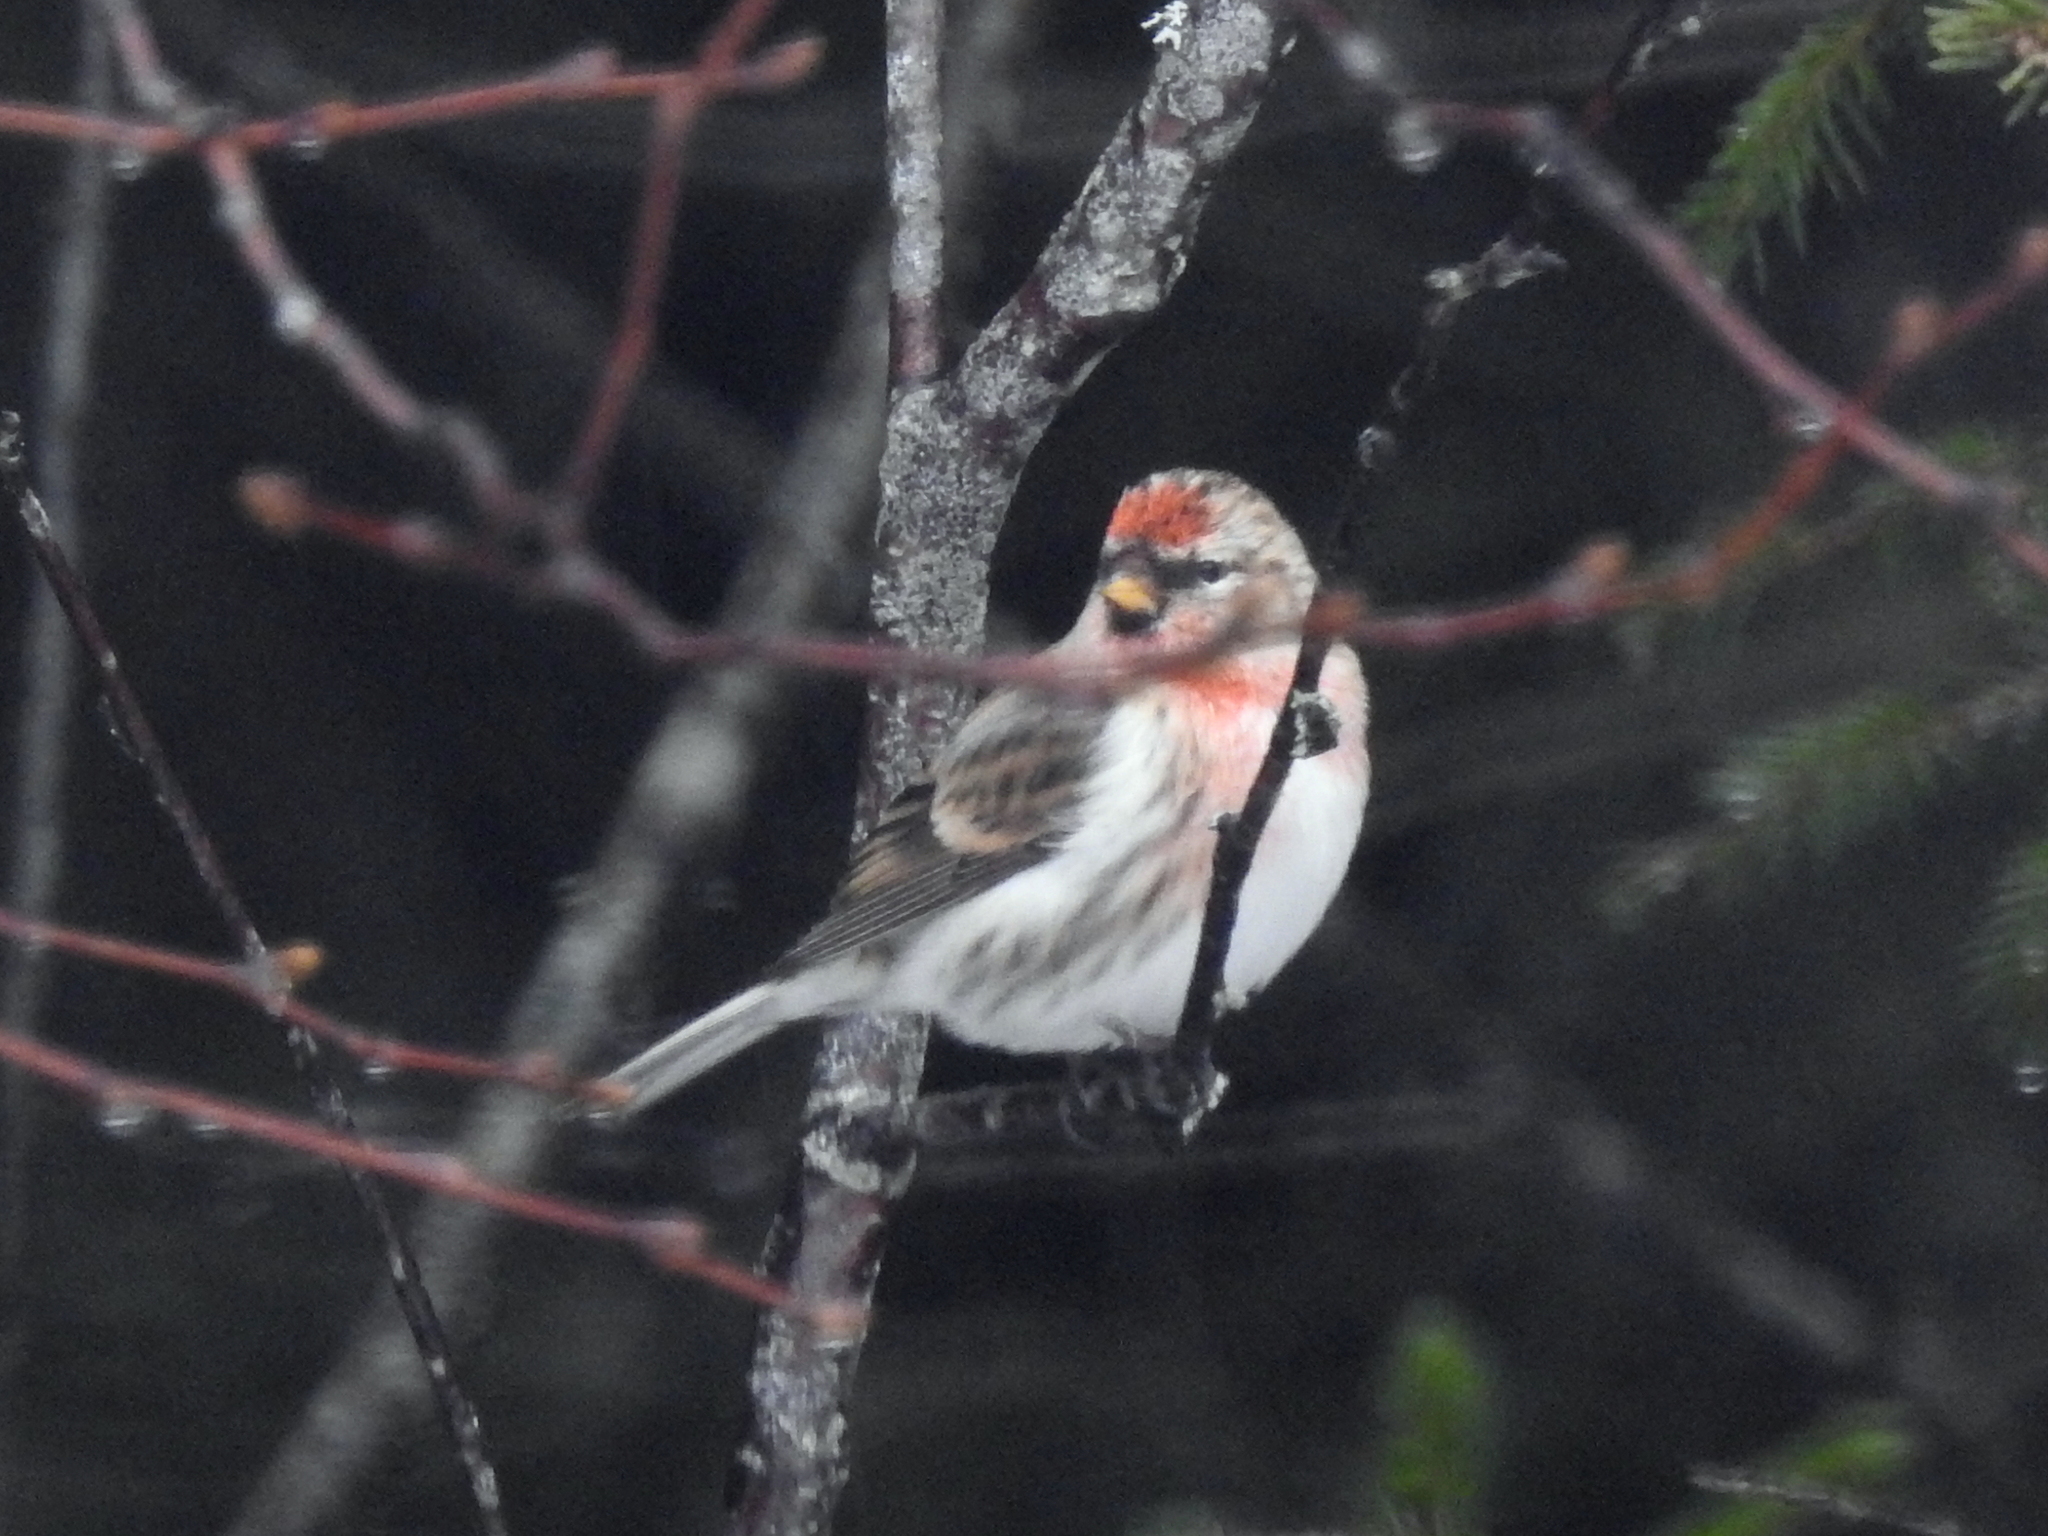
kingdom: Animalia
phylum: Chordata
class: Aves
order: Passeriformes
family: Fringillidae
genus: Acanthis
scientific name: Acanthis flammea
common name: Common redpoll
